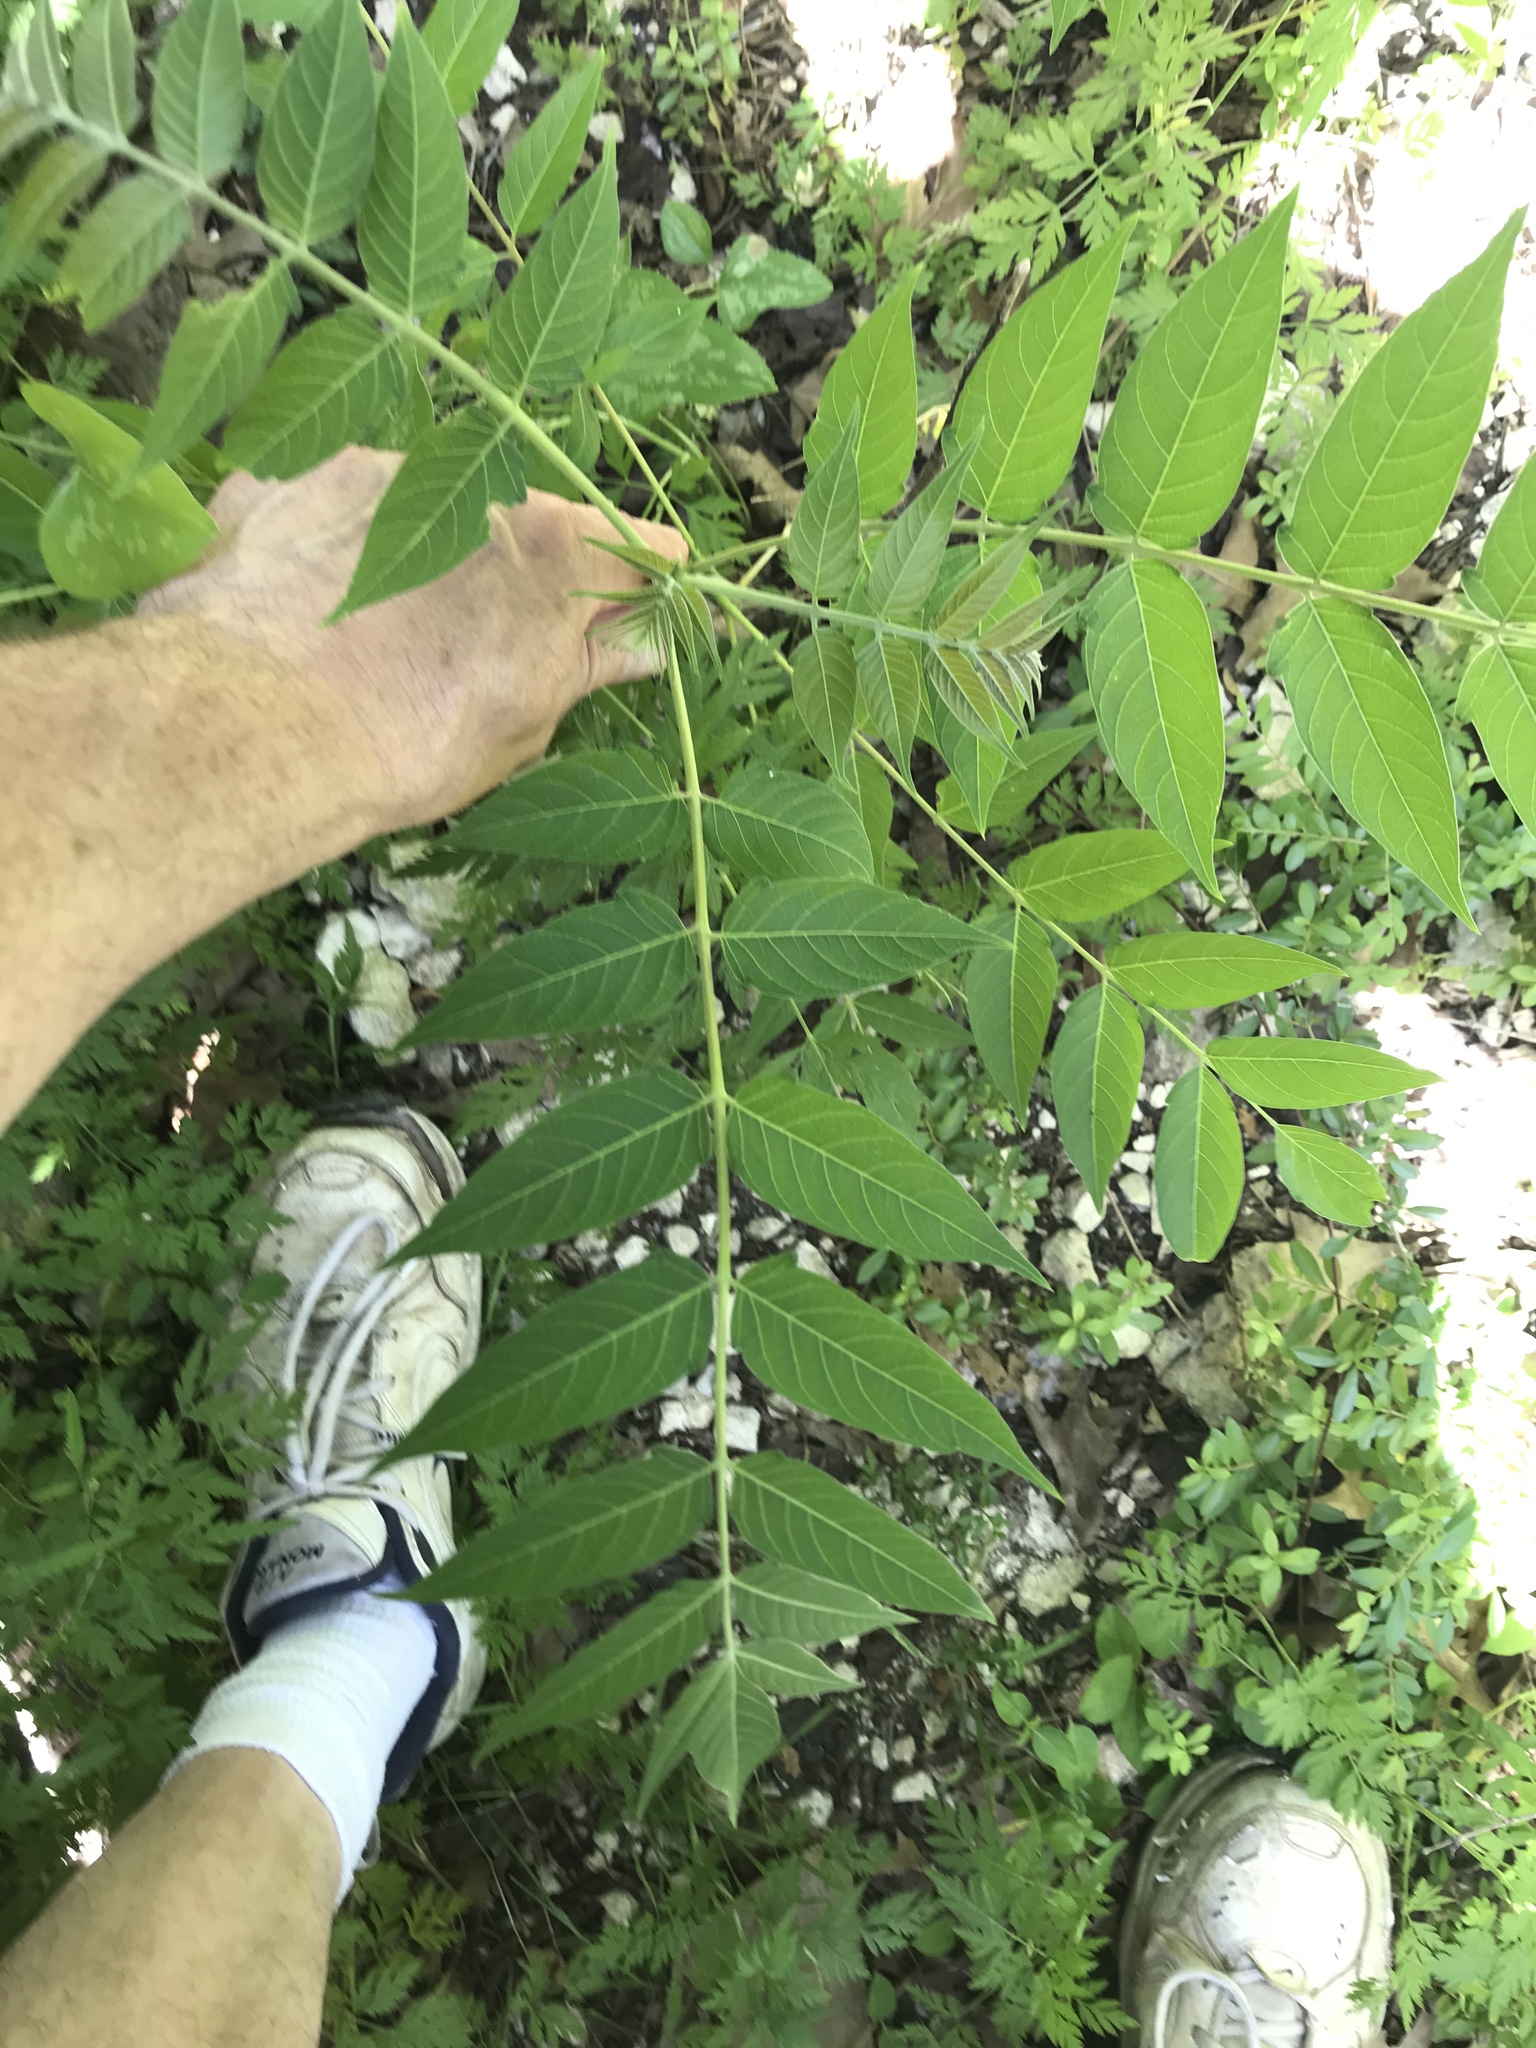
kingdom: Plantae
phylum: Tracheophyta
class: Magnoliopsida
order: Sapindales
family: Simaroubaceae
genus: Ailanthus
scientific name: Ailanthus altissima
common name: Tree-of-heaven
